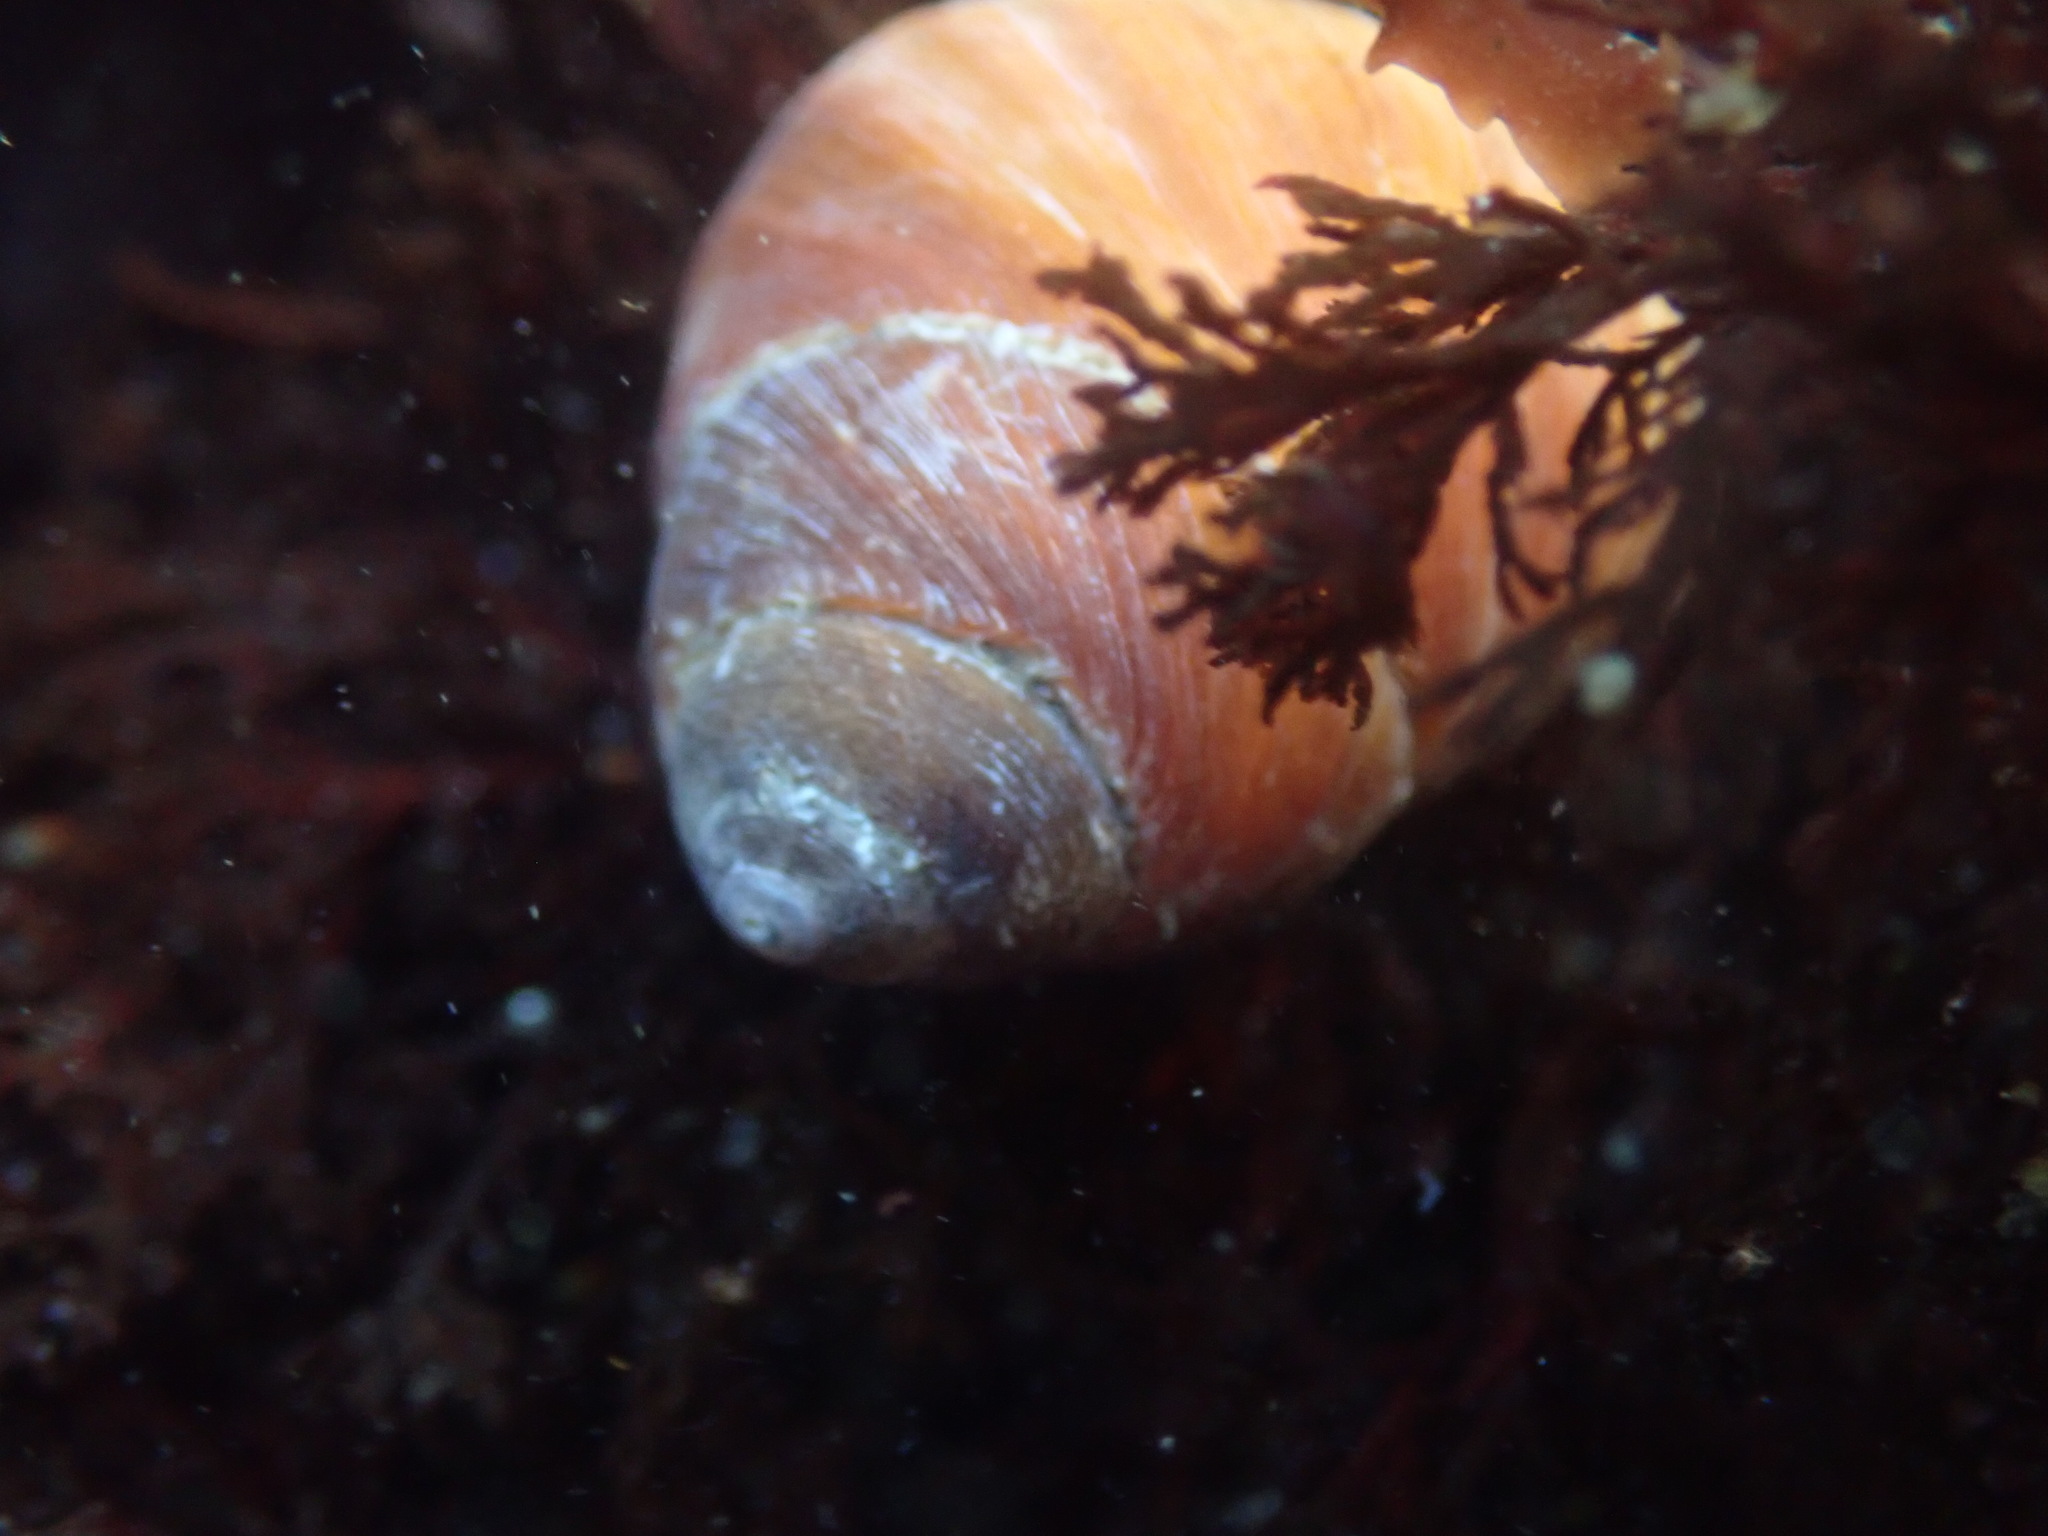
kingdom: Animalia
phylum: Mollusca
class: Gastropoda
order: Trochida
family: Tegulidae
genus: Tegula
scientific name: Tegula brunnea
